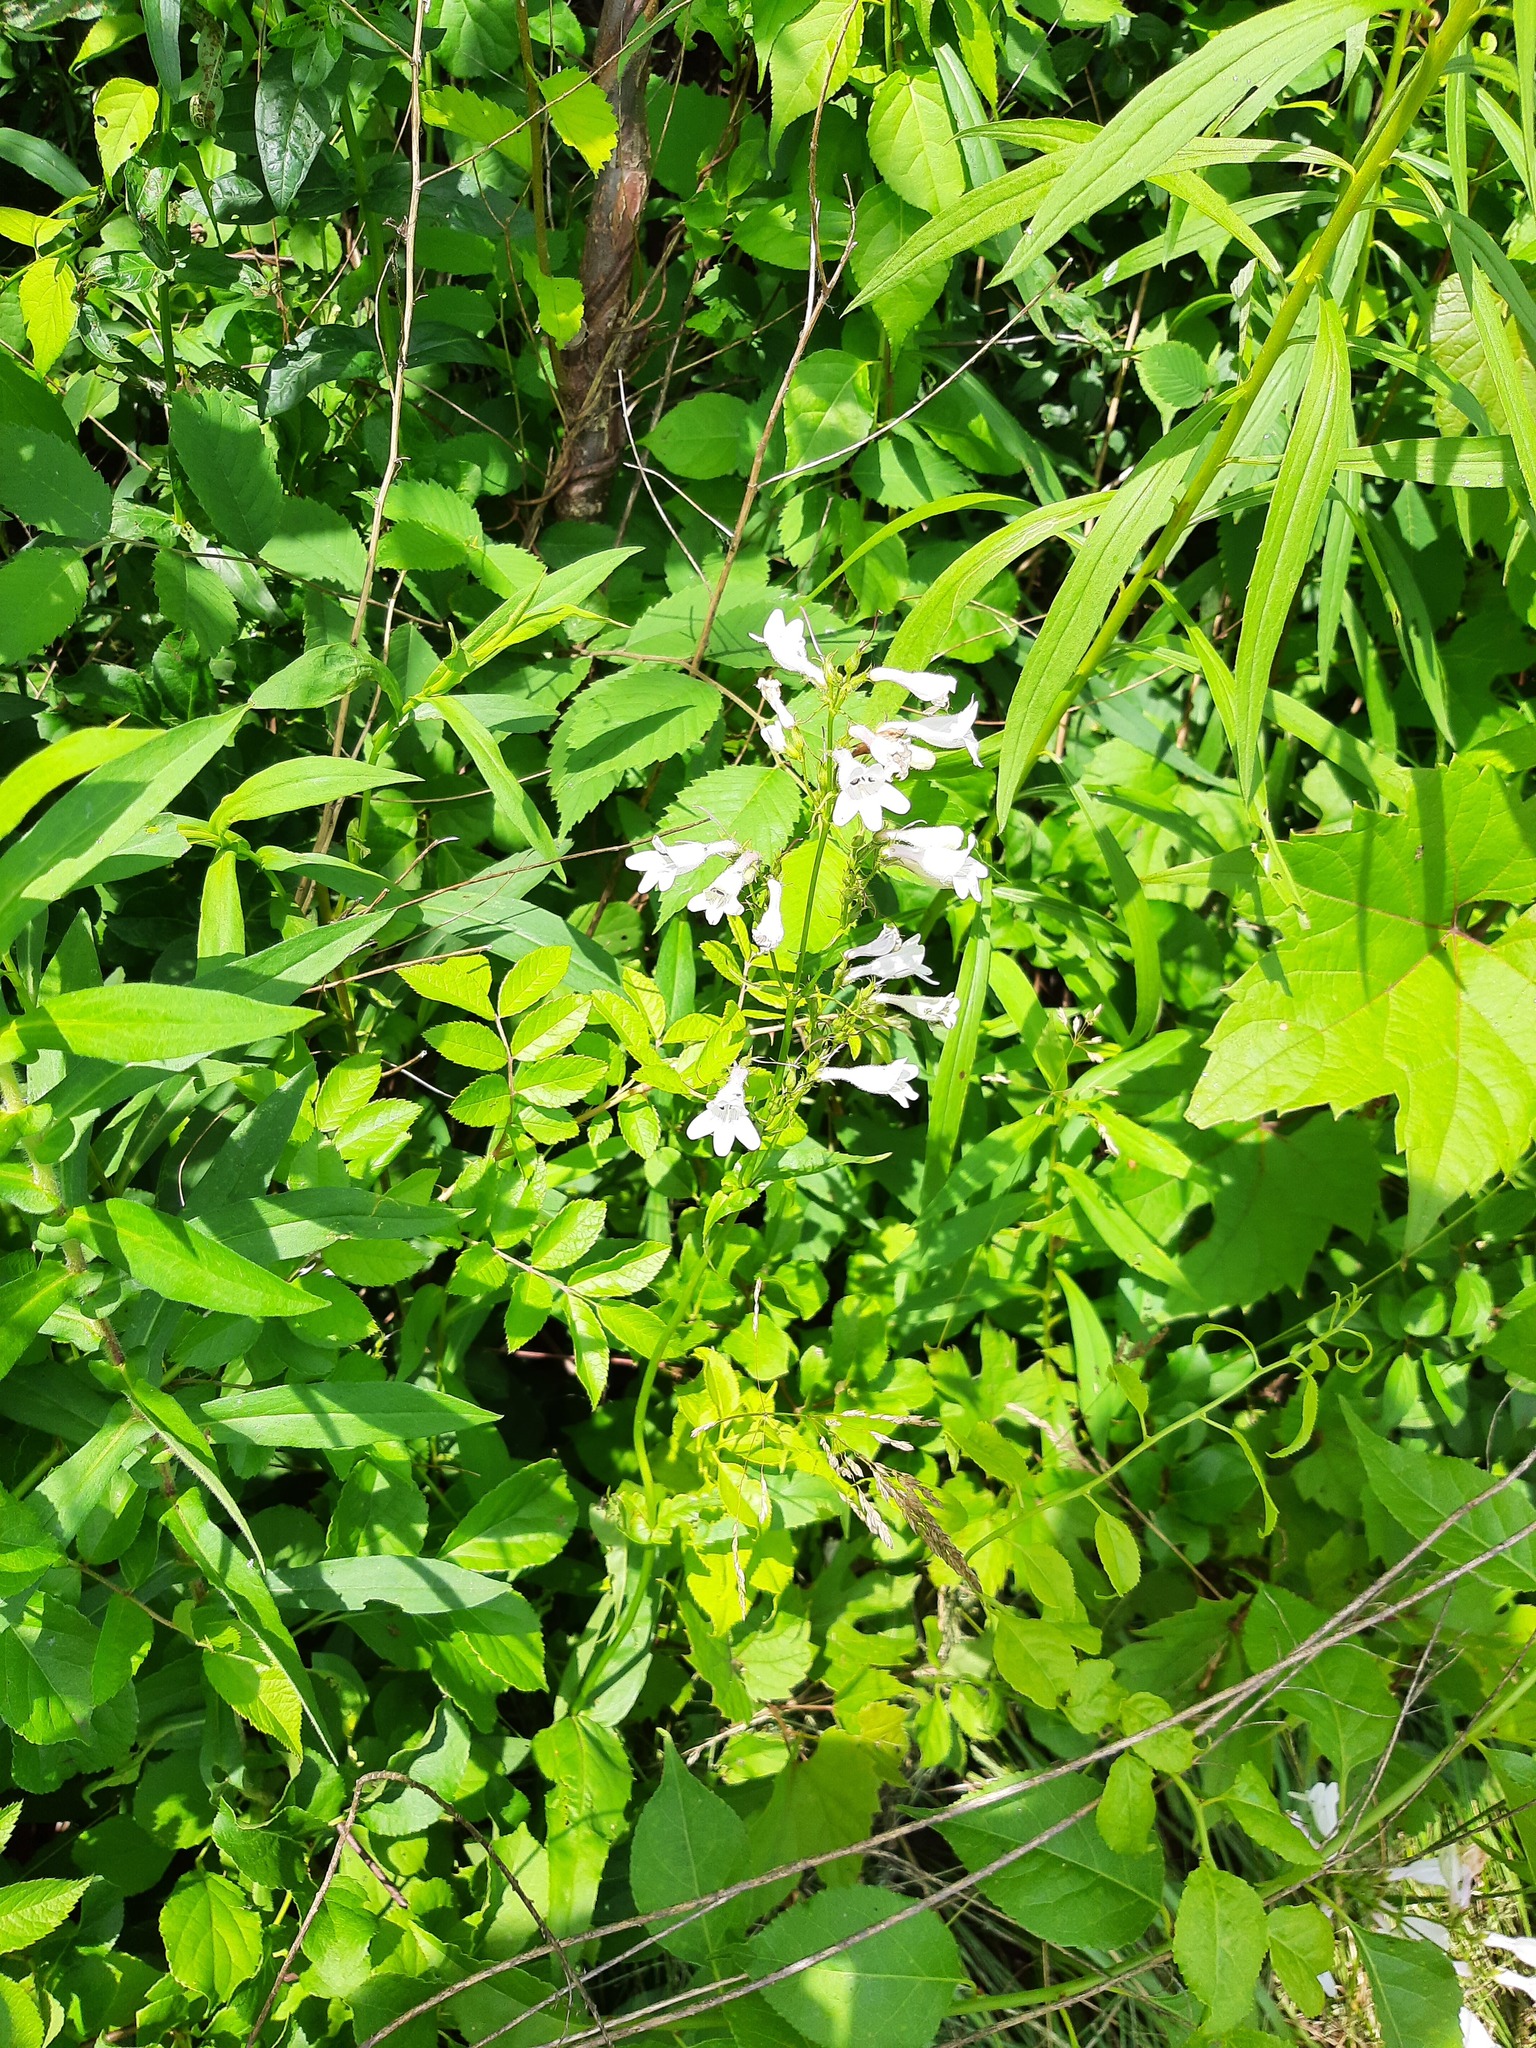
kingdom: Plantae
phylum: Tracheophyta
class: Magnoliopsida
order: Lamiales
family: Plantaginaceae
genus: Penstemon
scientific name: Penstemon digitalis
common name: Foxglove beardtongue
